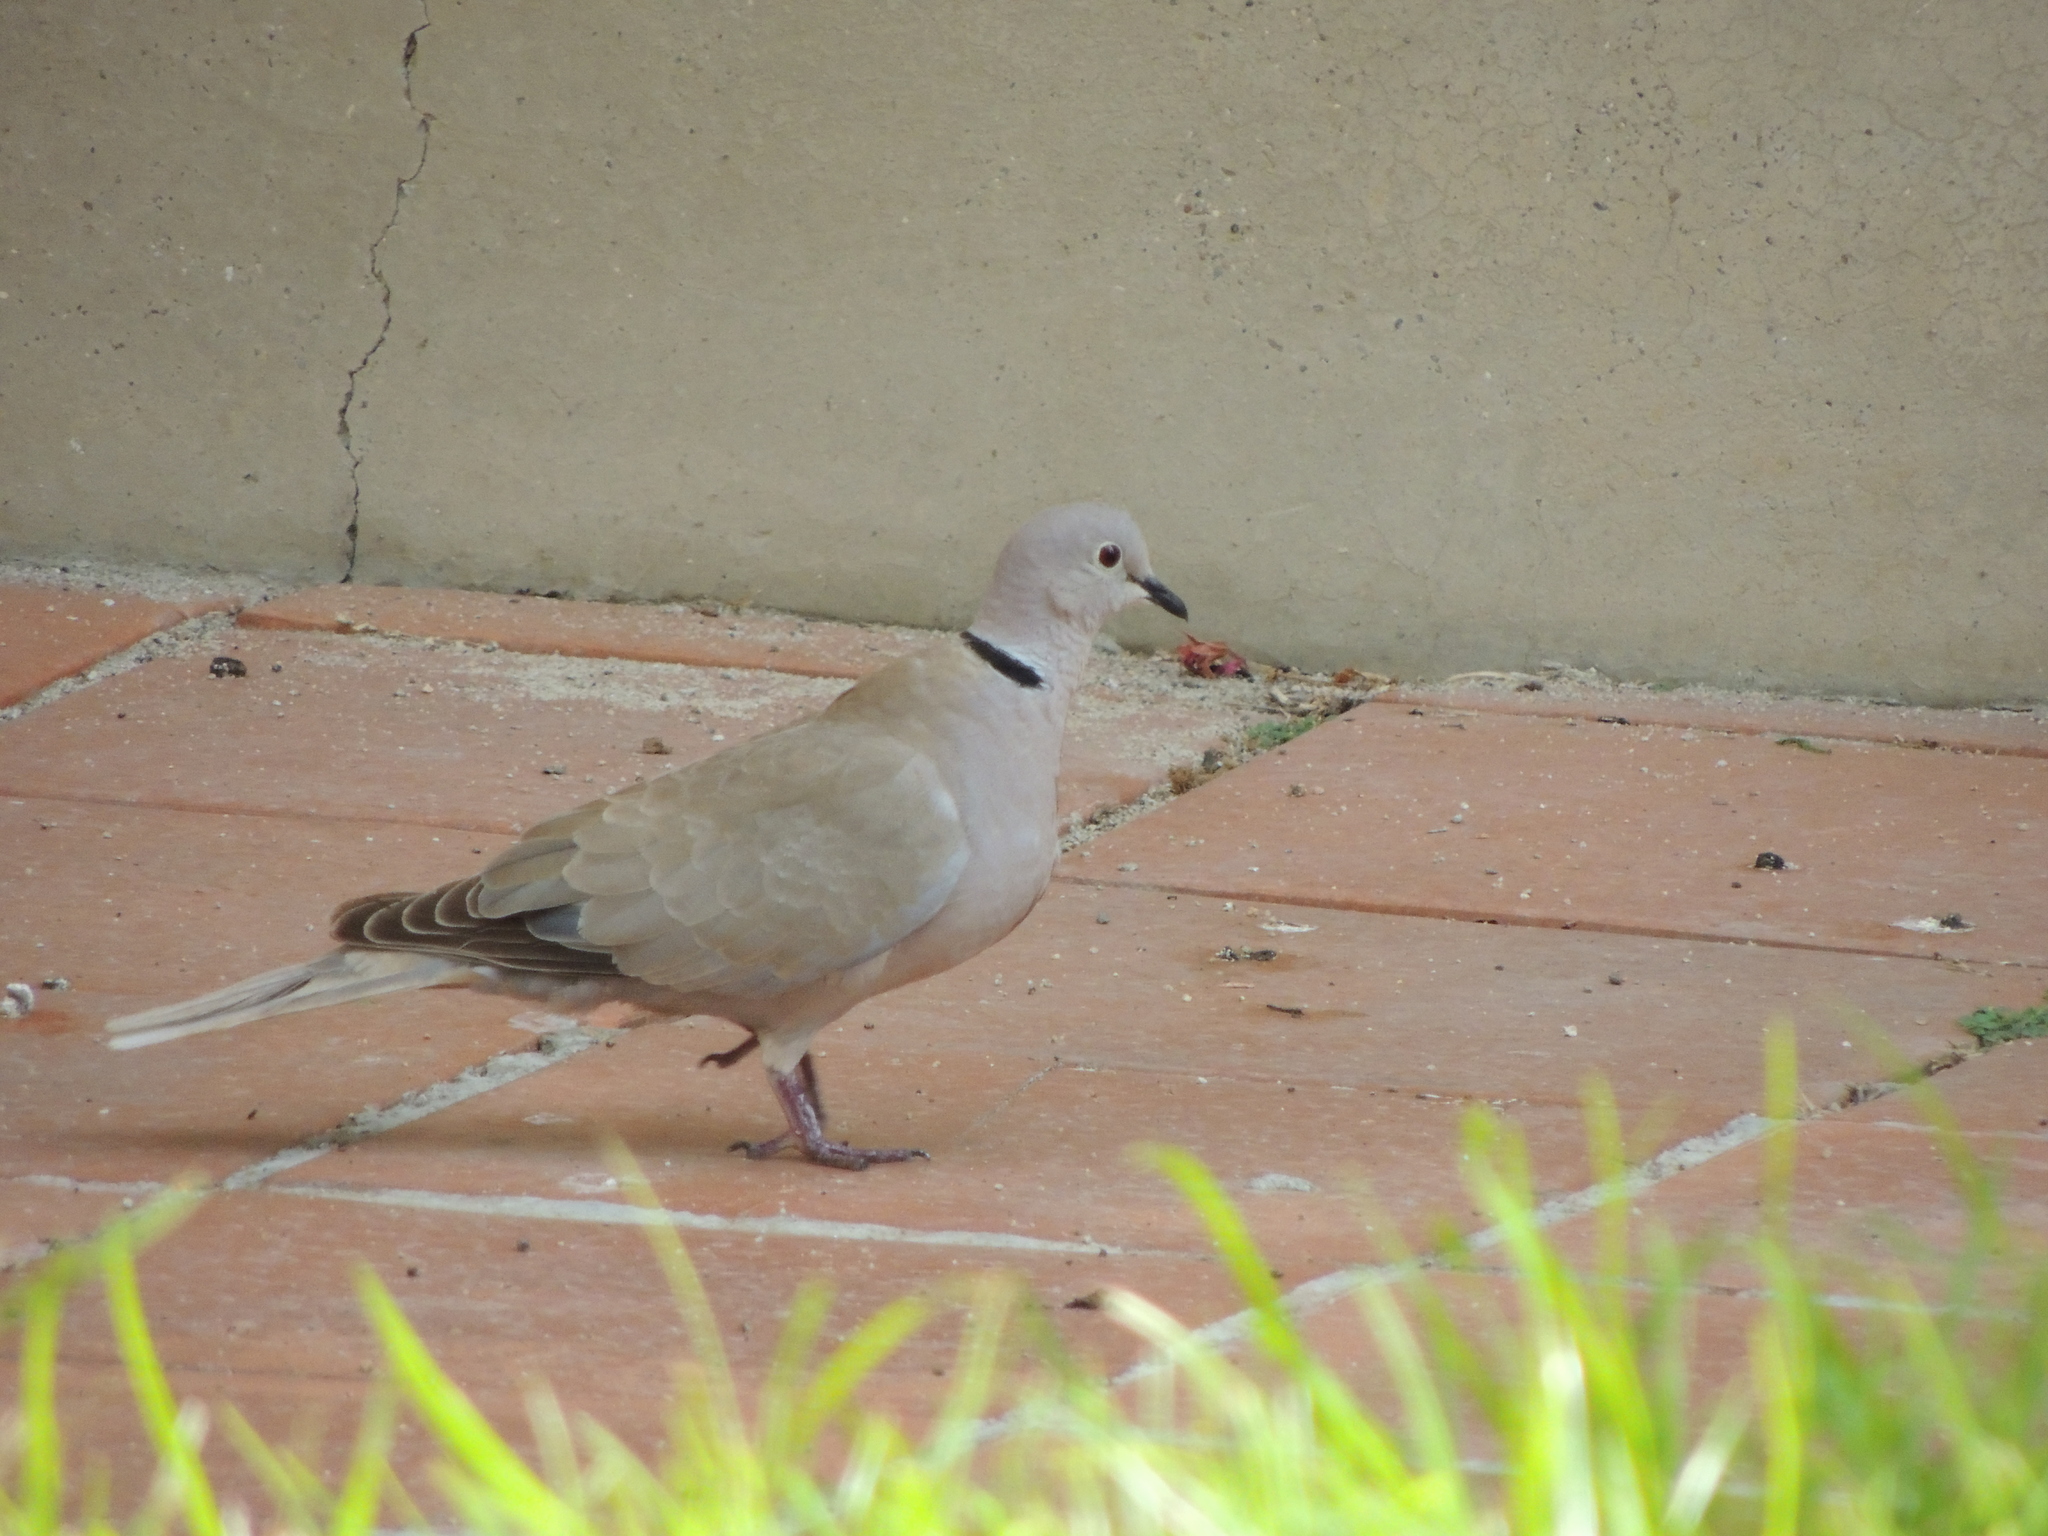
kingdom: Animalia
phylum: Chordata
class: Aves
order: Columbiformes
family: Columbidae
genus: Streptopelia
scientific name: Streptopelia decaocto
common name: Eurasian collared dove
